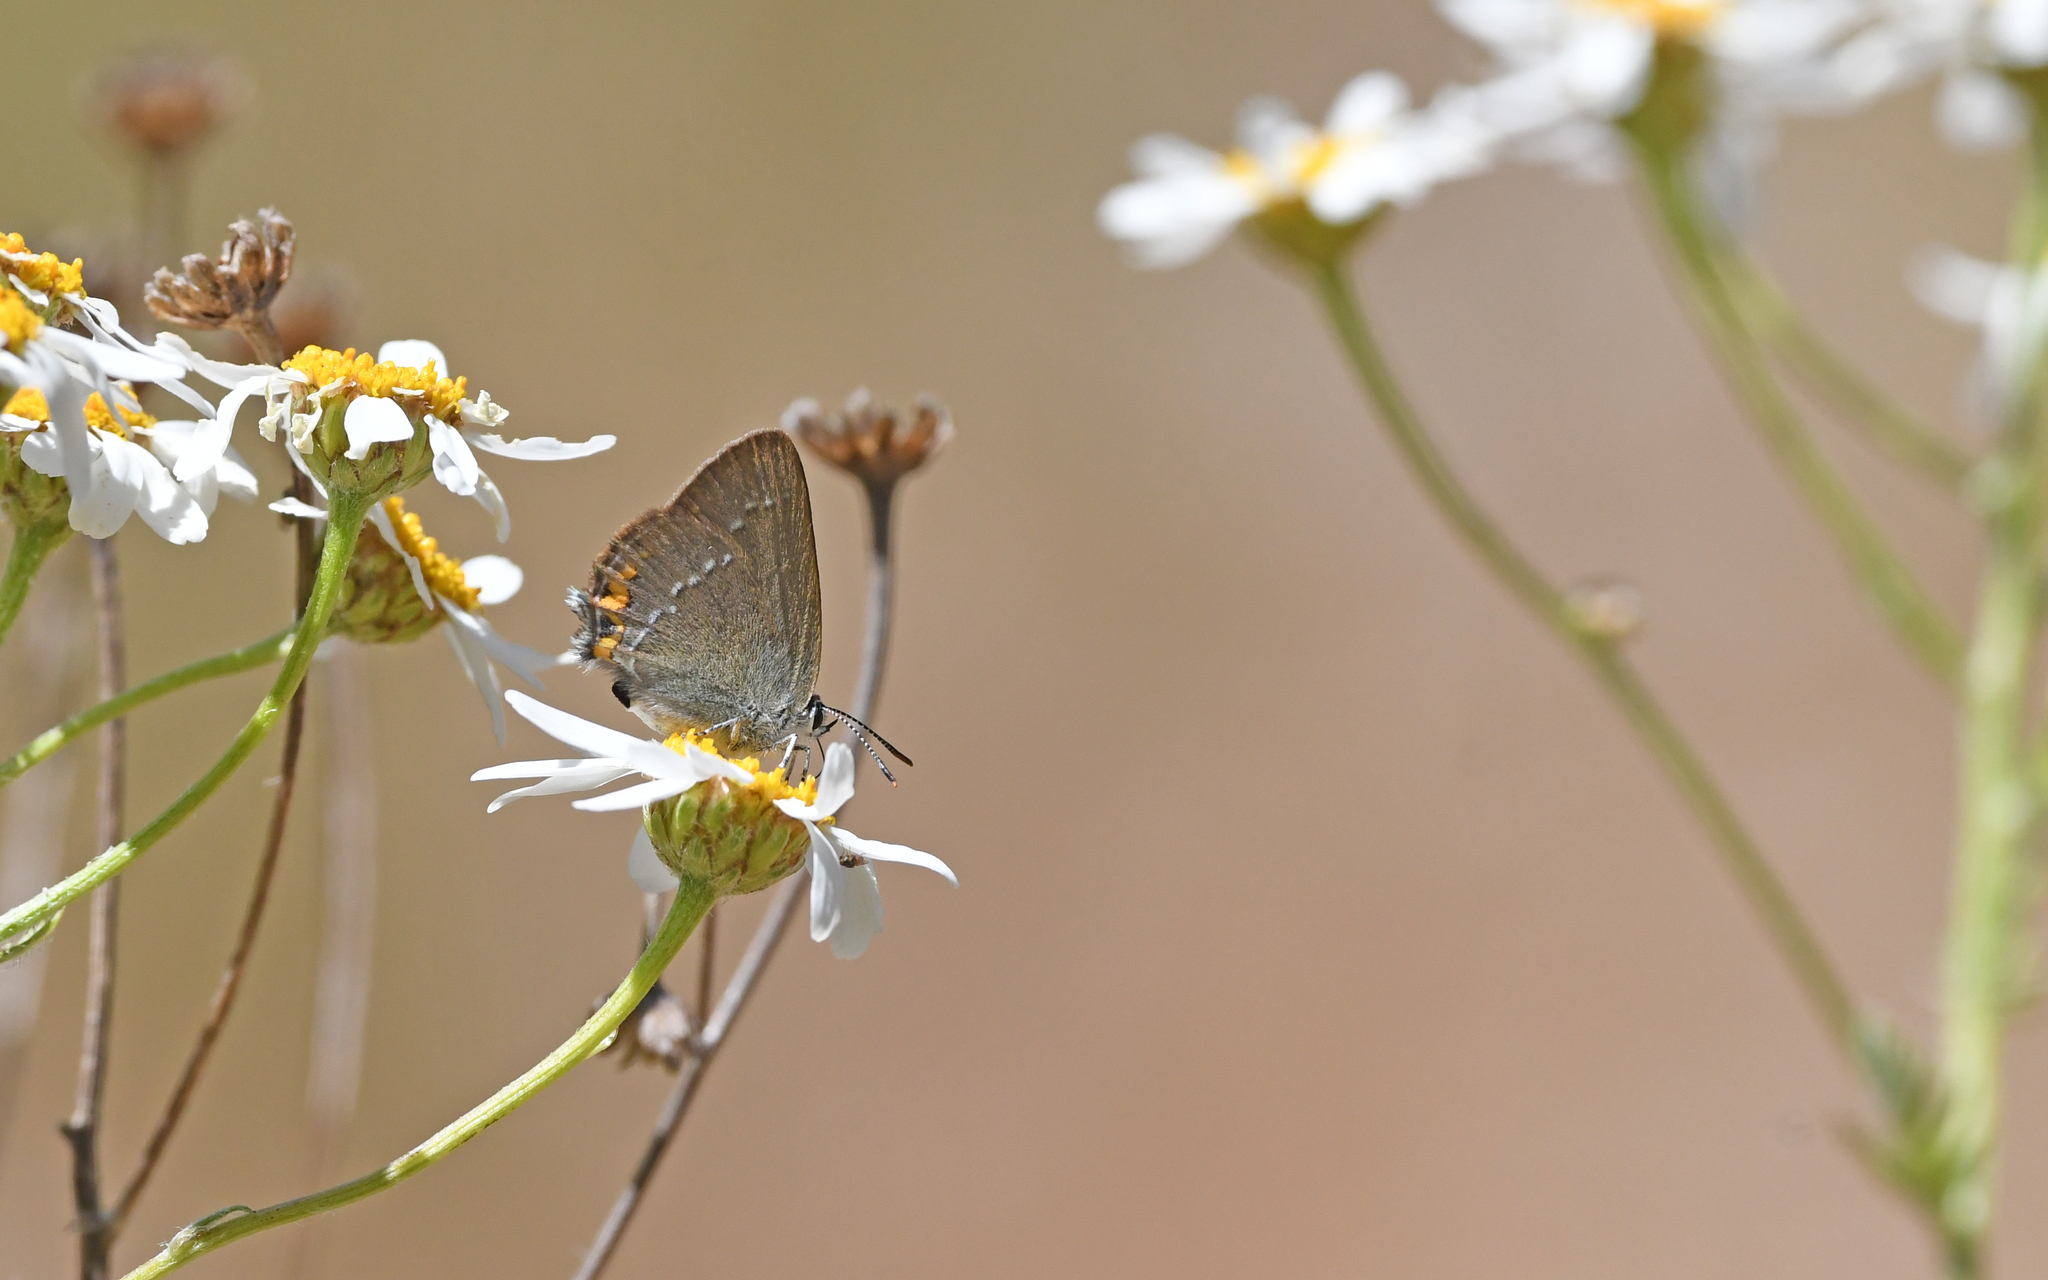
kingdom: Animalia
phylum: Arthropoda
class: Insecta
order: Lepidoptera
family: Lycaenidae
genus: Strymon
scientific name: Strymon acaciae
